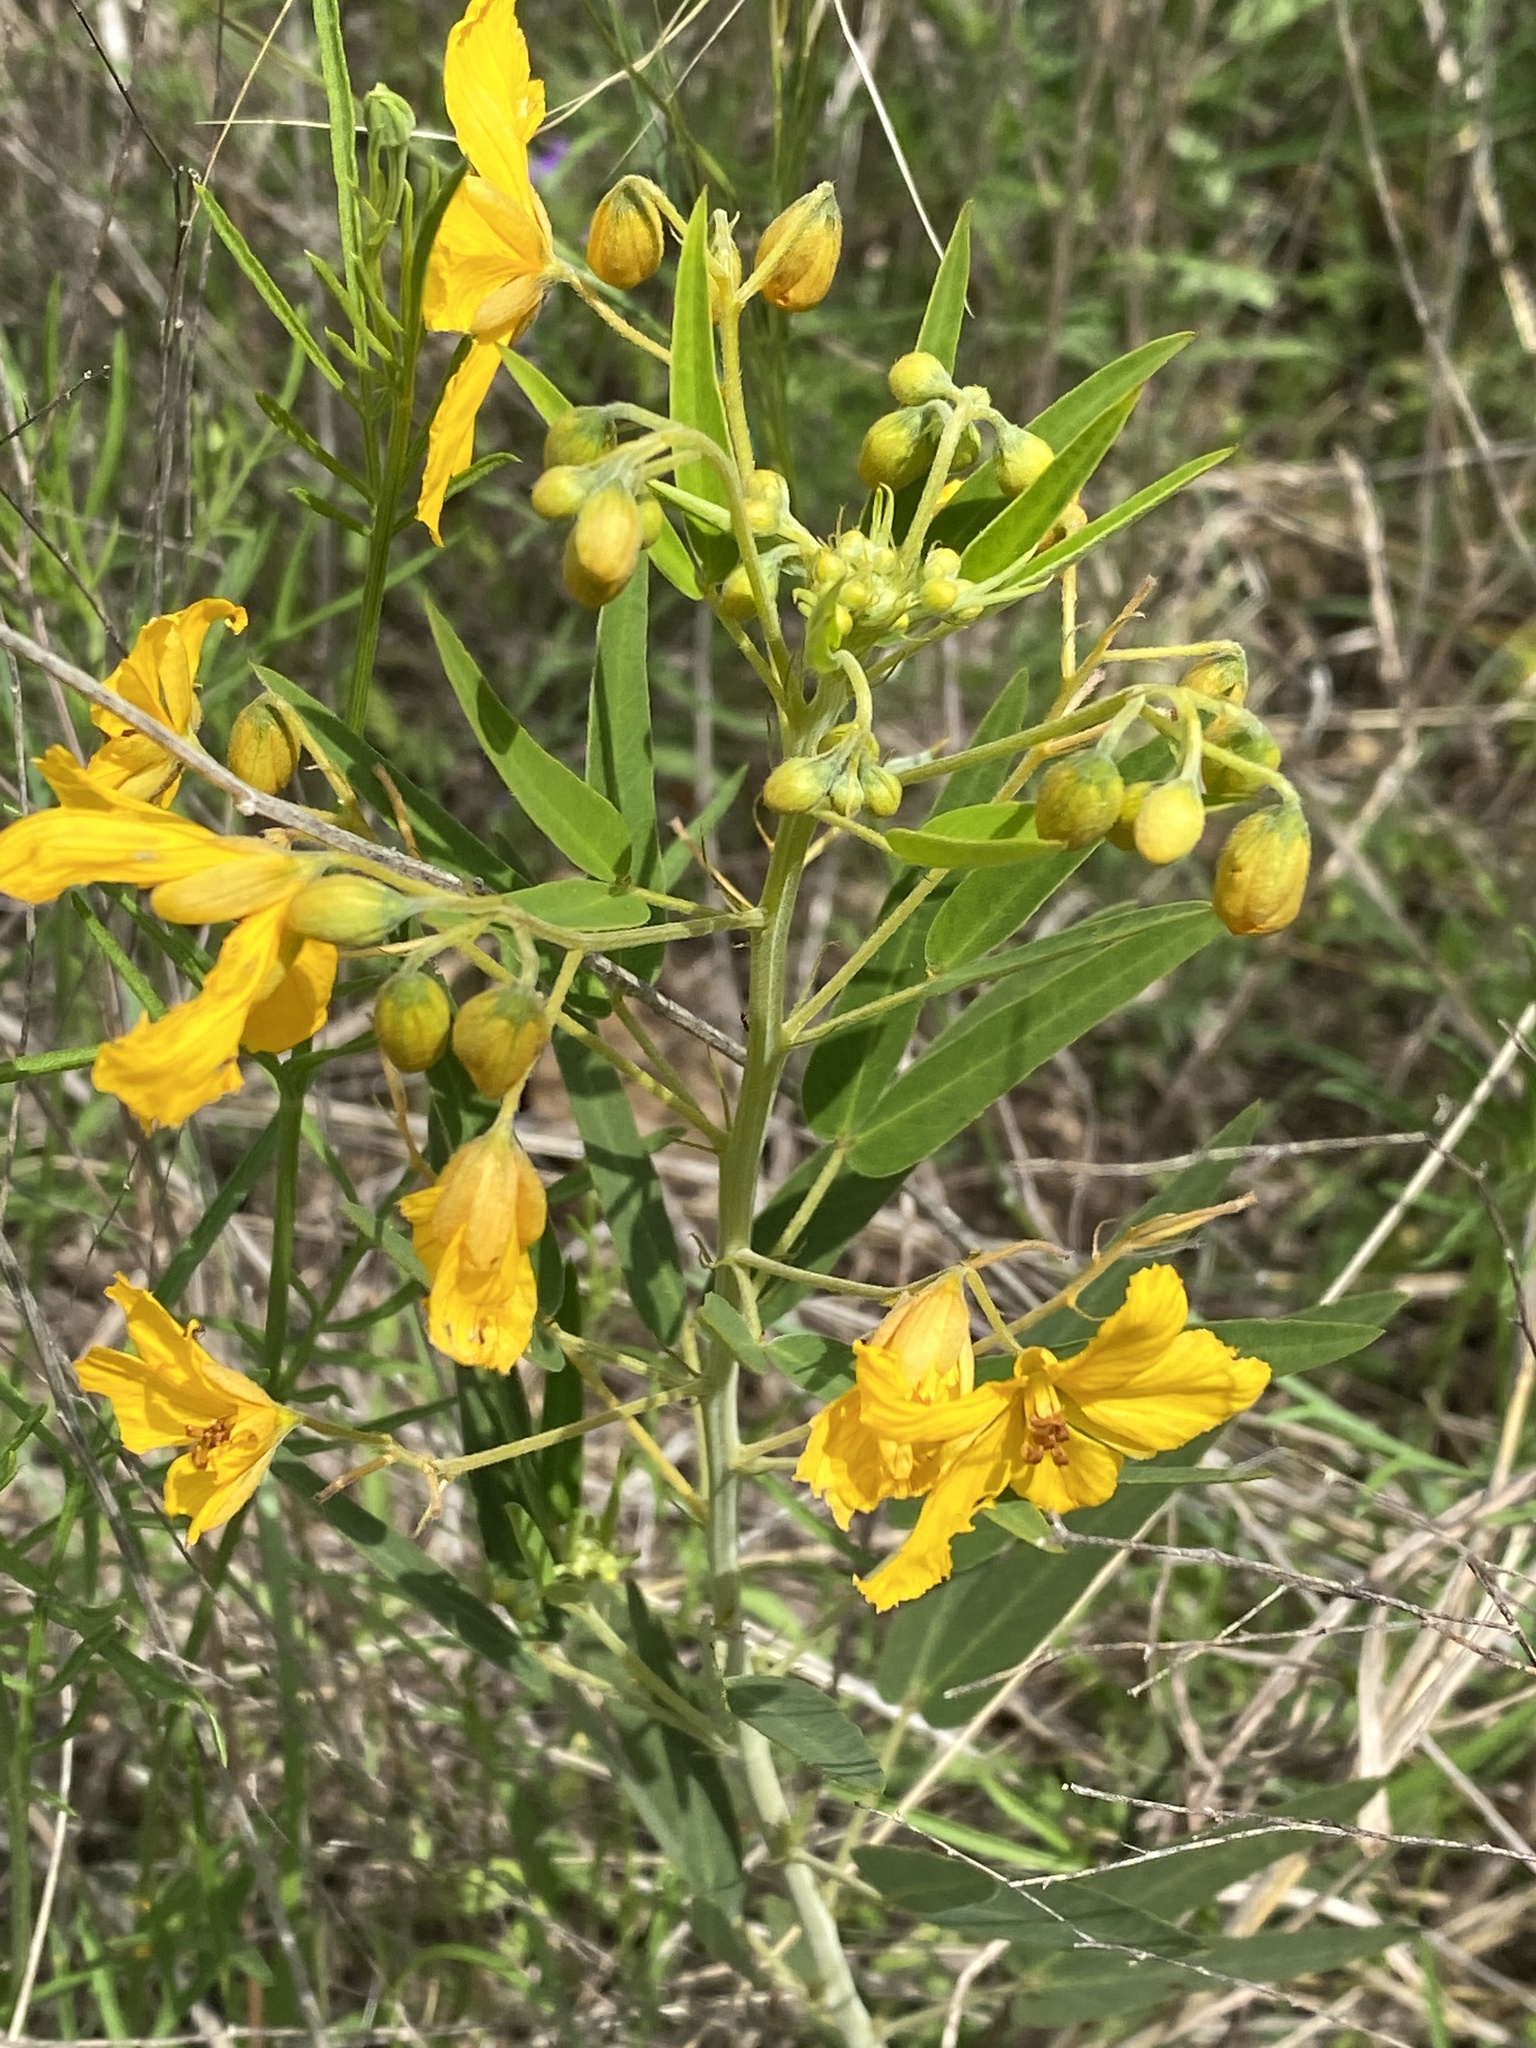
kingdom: Plantae
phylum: Tracheophyta
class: Magnoliopsida
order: Fabales
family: Fabaceae
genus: Senna
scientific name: Senna roemeriana
